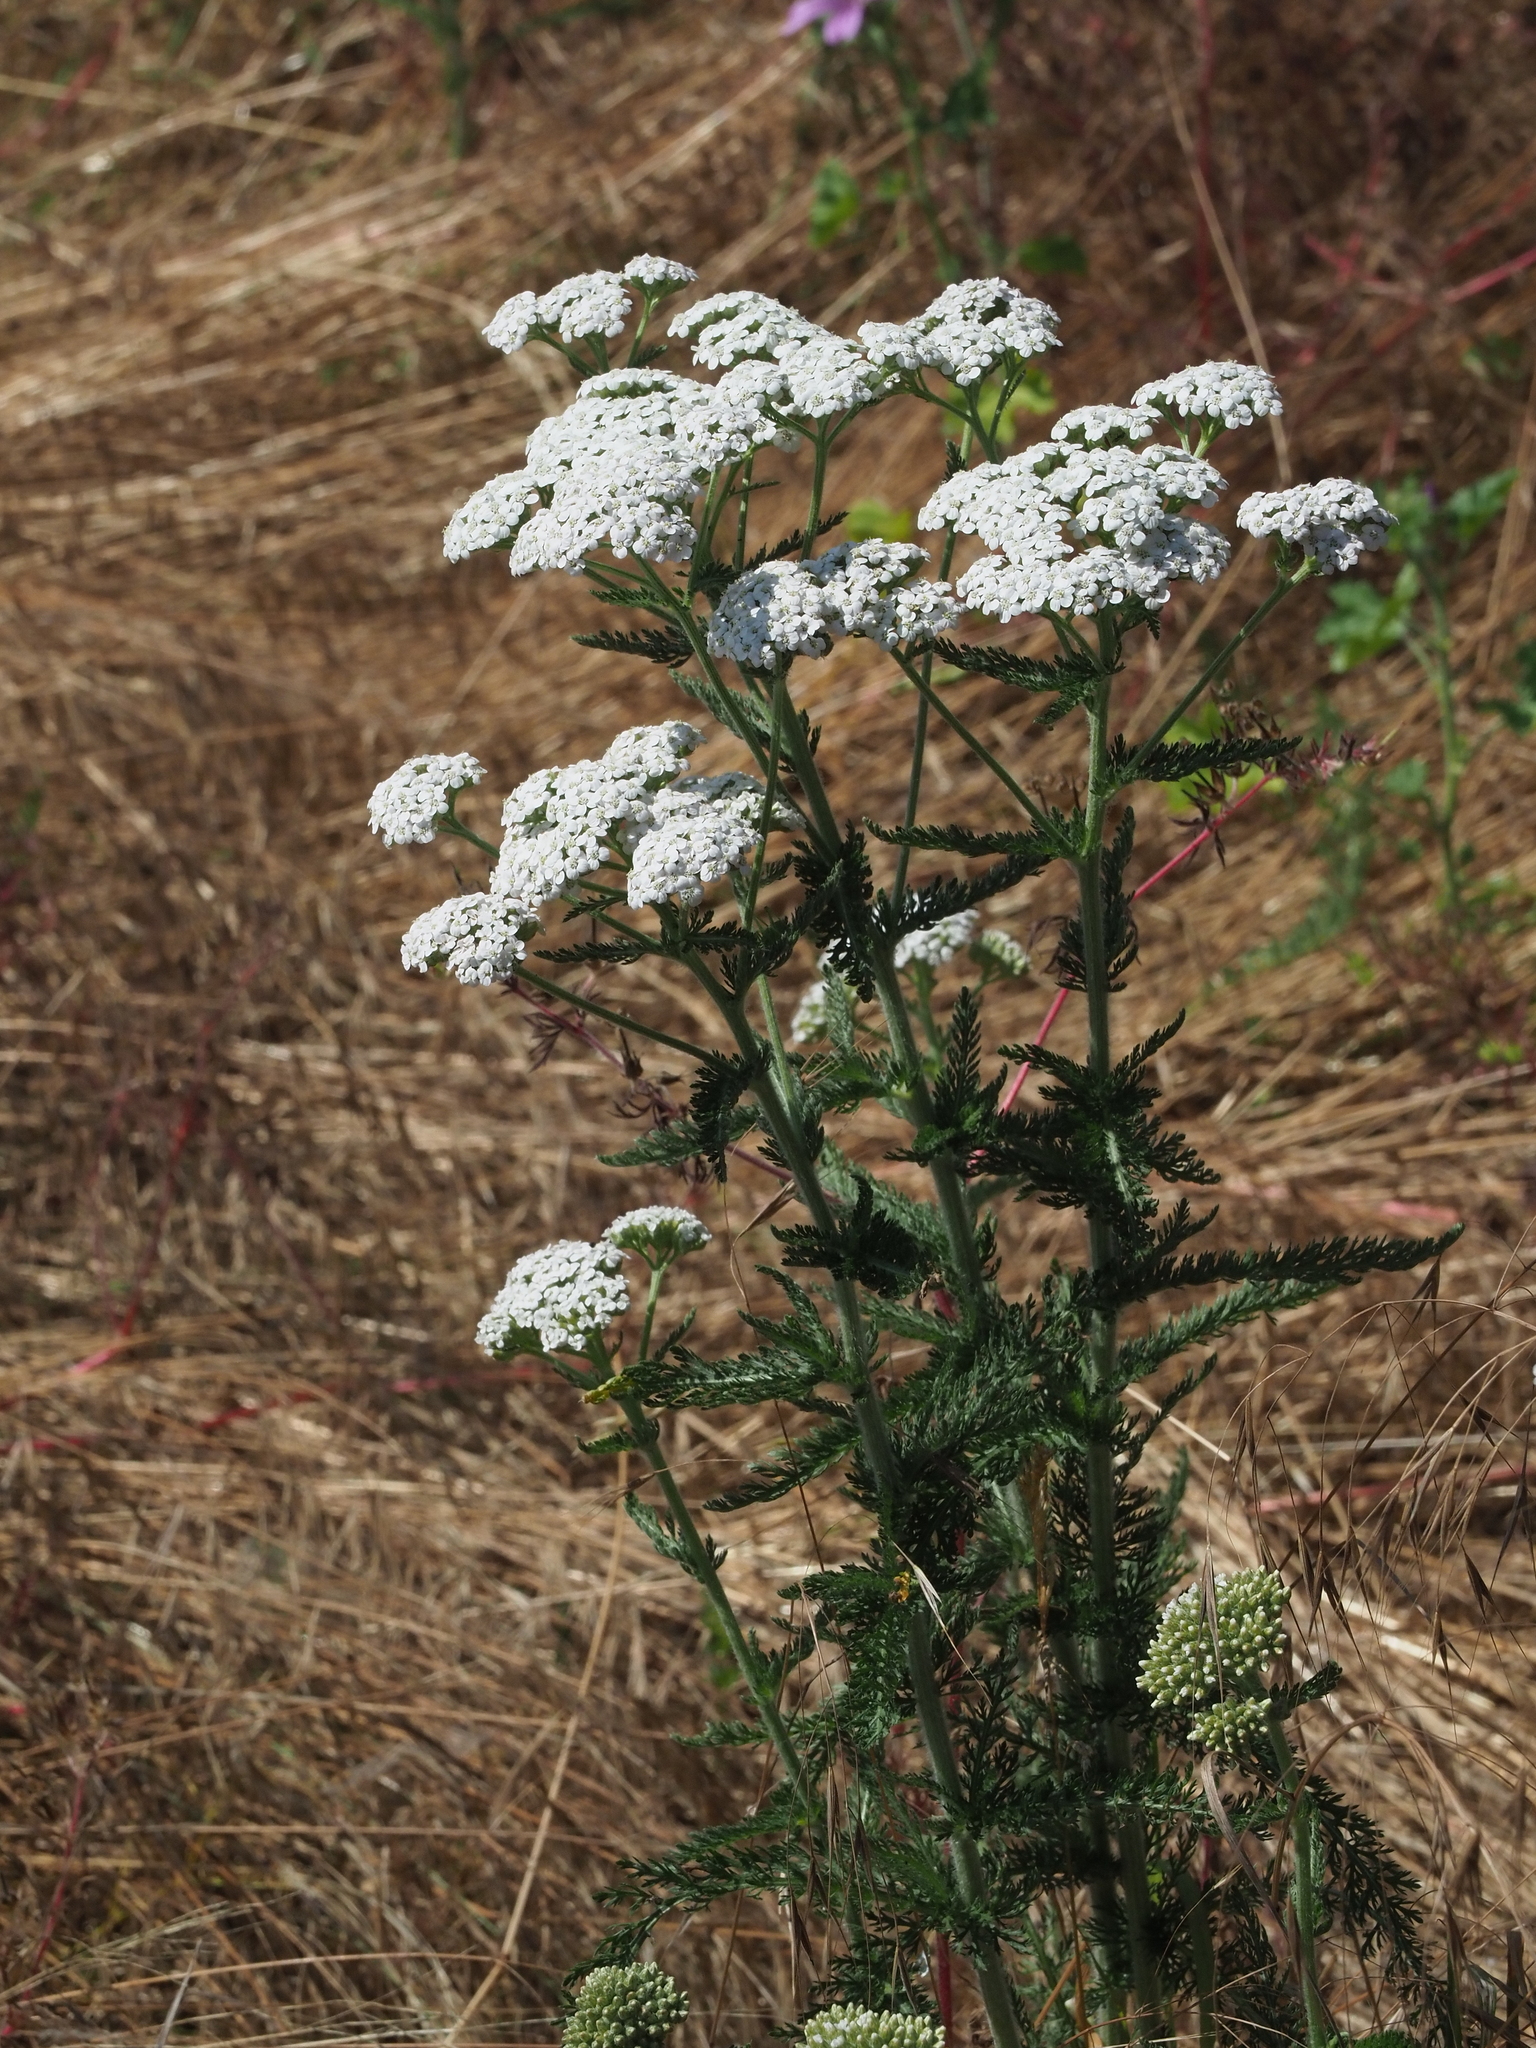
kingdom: Plantae
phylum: Tracheophyta
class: Magnoliopsida
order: Asterales
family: Asteraceae
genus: Achillea
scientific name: Achillea millefolium
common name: Yarrow
